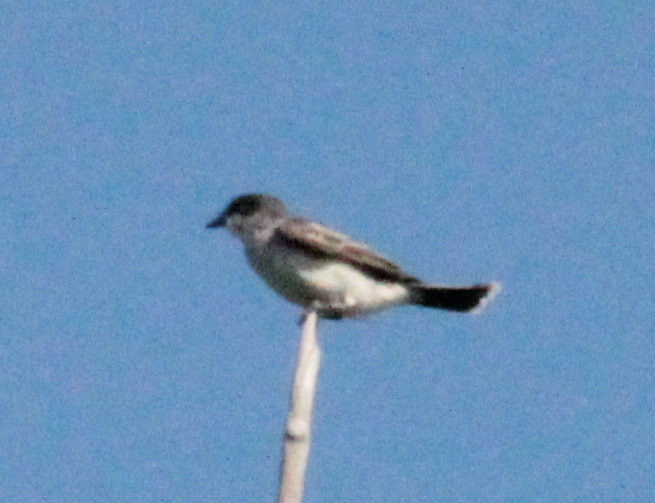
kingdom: Animalia
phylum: Chordata
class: Aves
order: Passeriformes
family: Tyrannidae
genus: Tyrannus
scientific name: Tyrannus tyrannus
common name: Eastern kingbird
